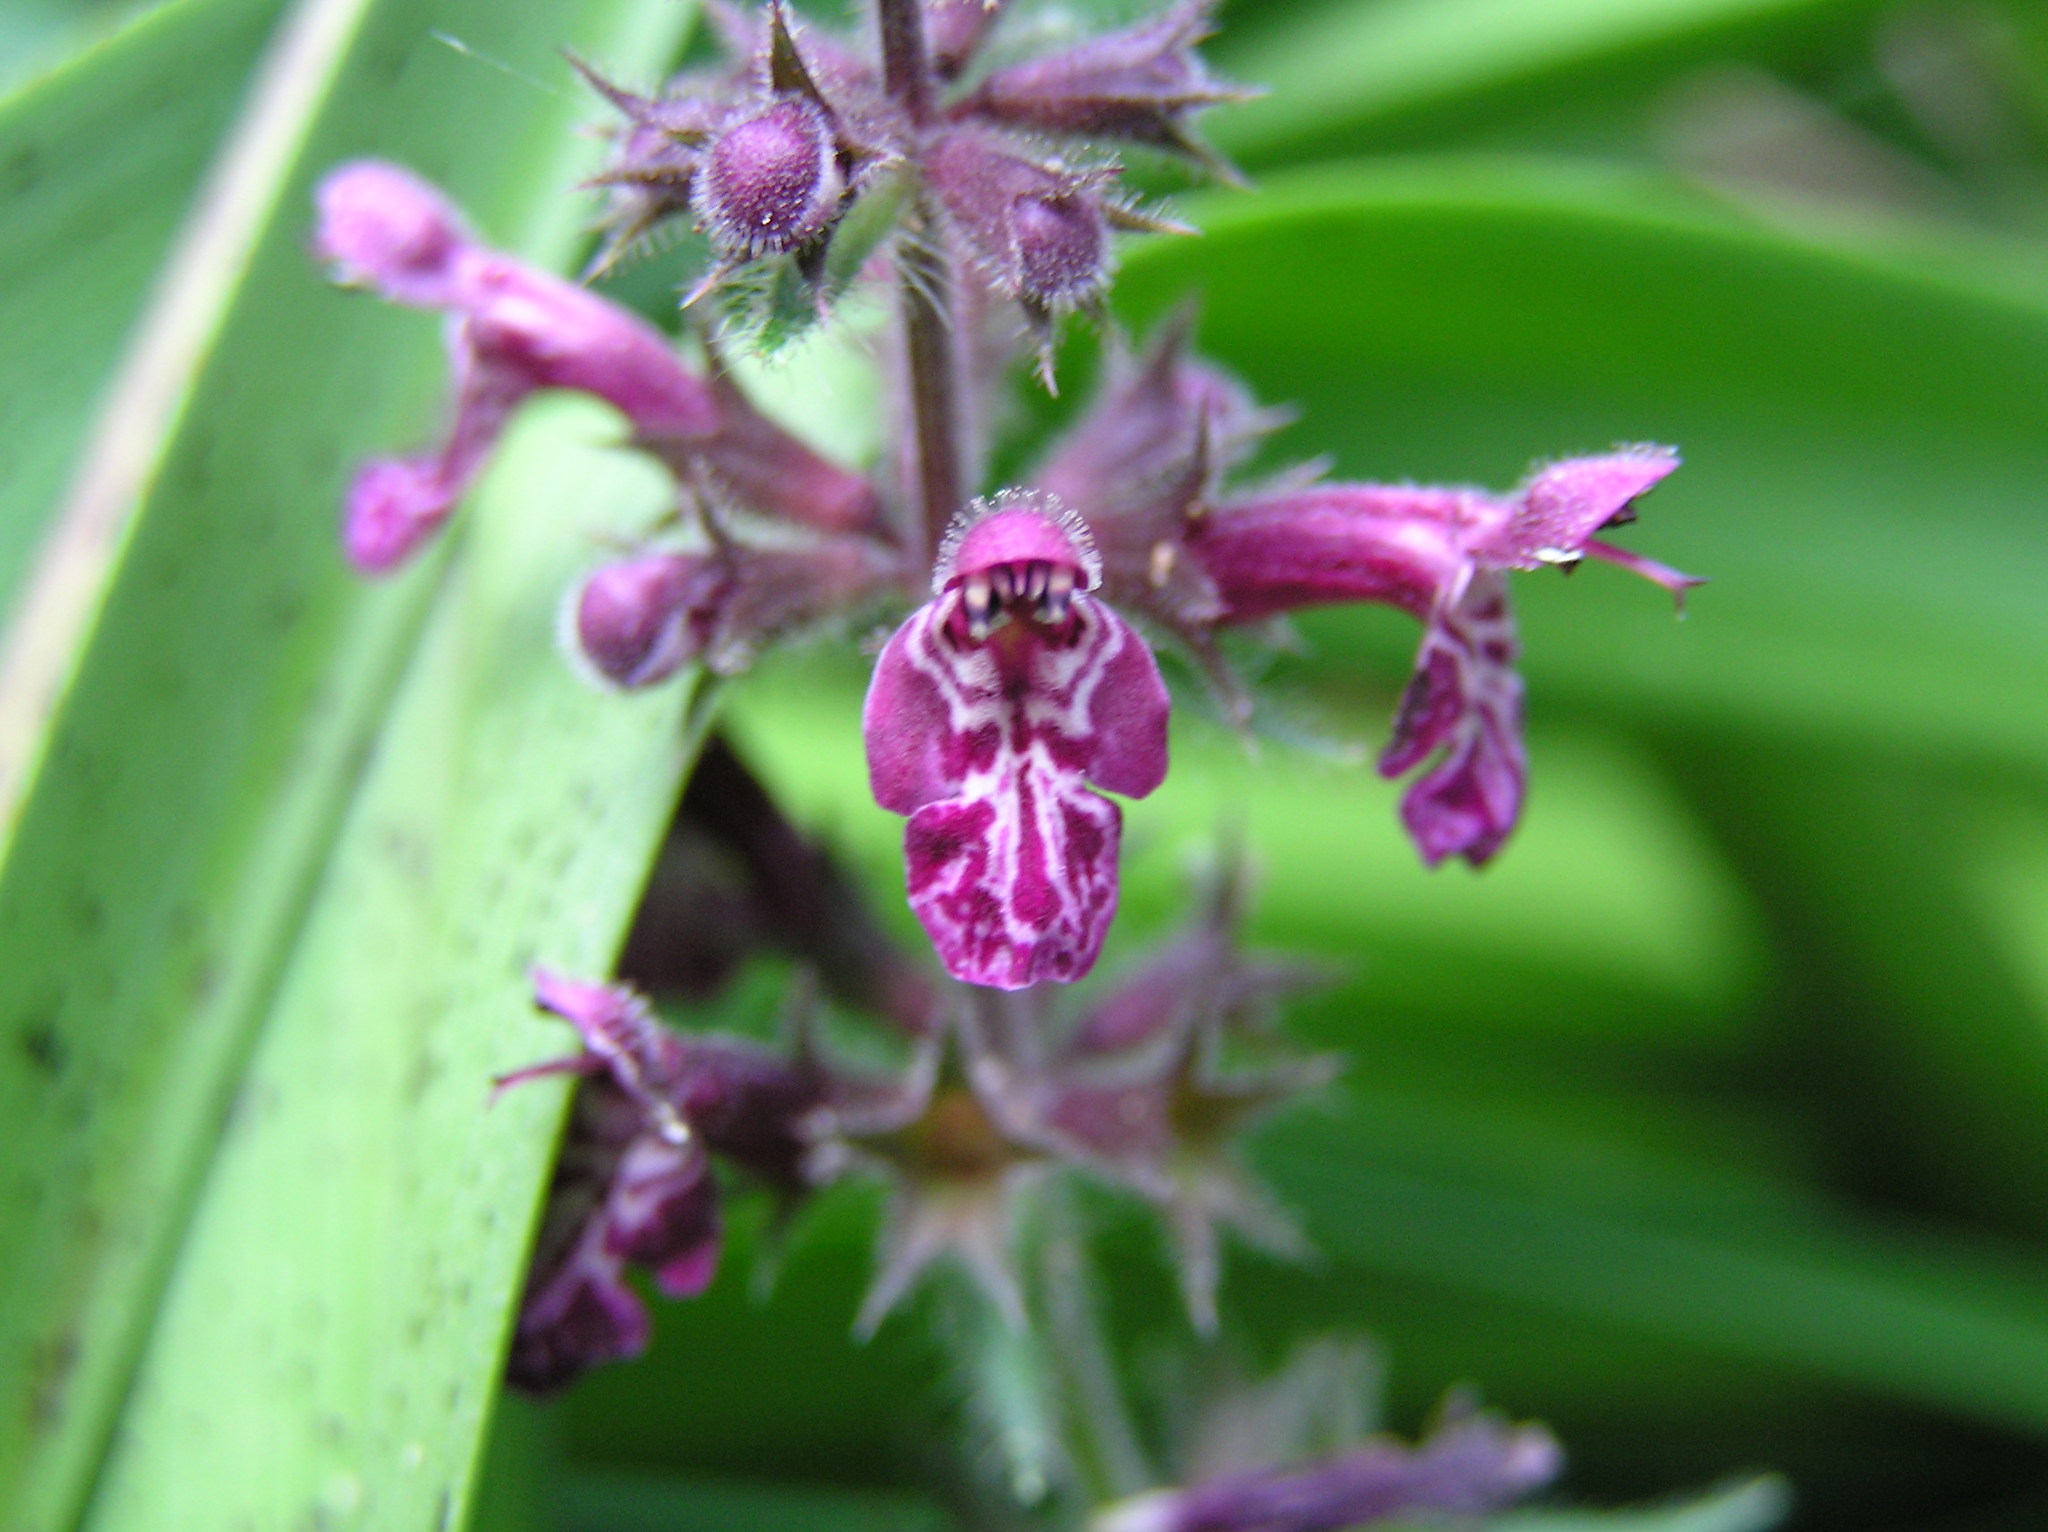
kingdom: Plantae
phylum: Tracheophyta
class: Magnoliopsida
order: Lamiales
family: Lamiaceae
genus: Stachys
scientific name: Stachys sylvatica
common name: Hedge woundwort
